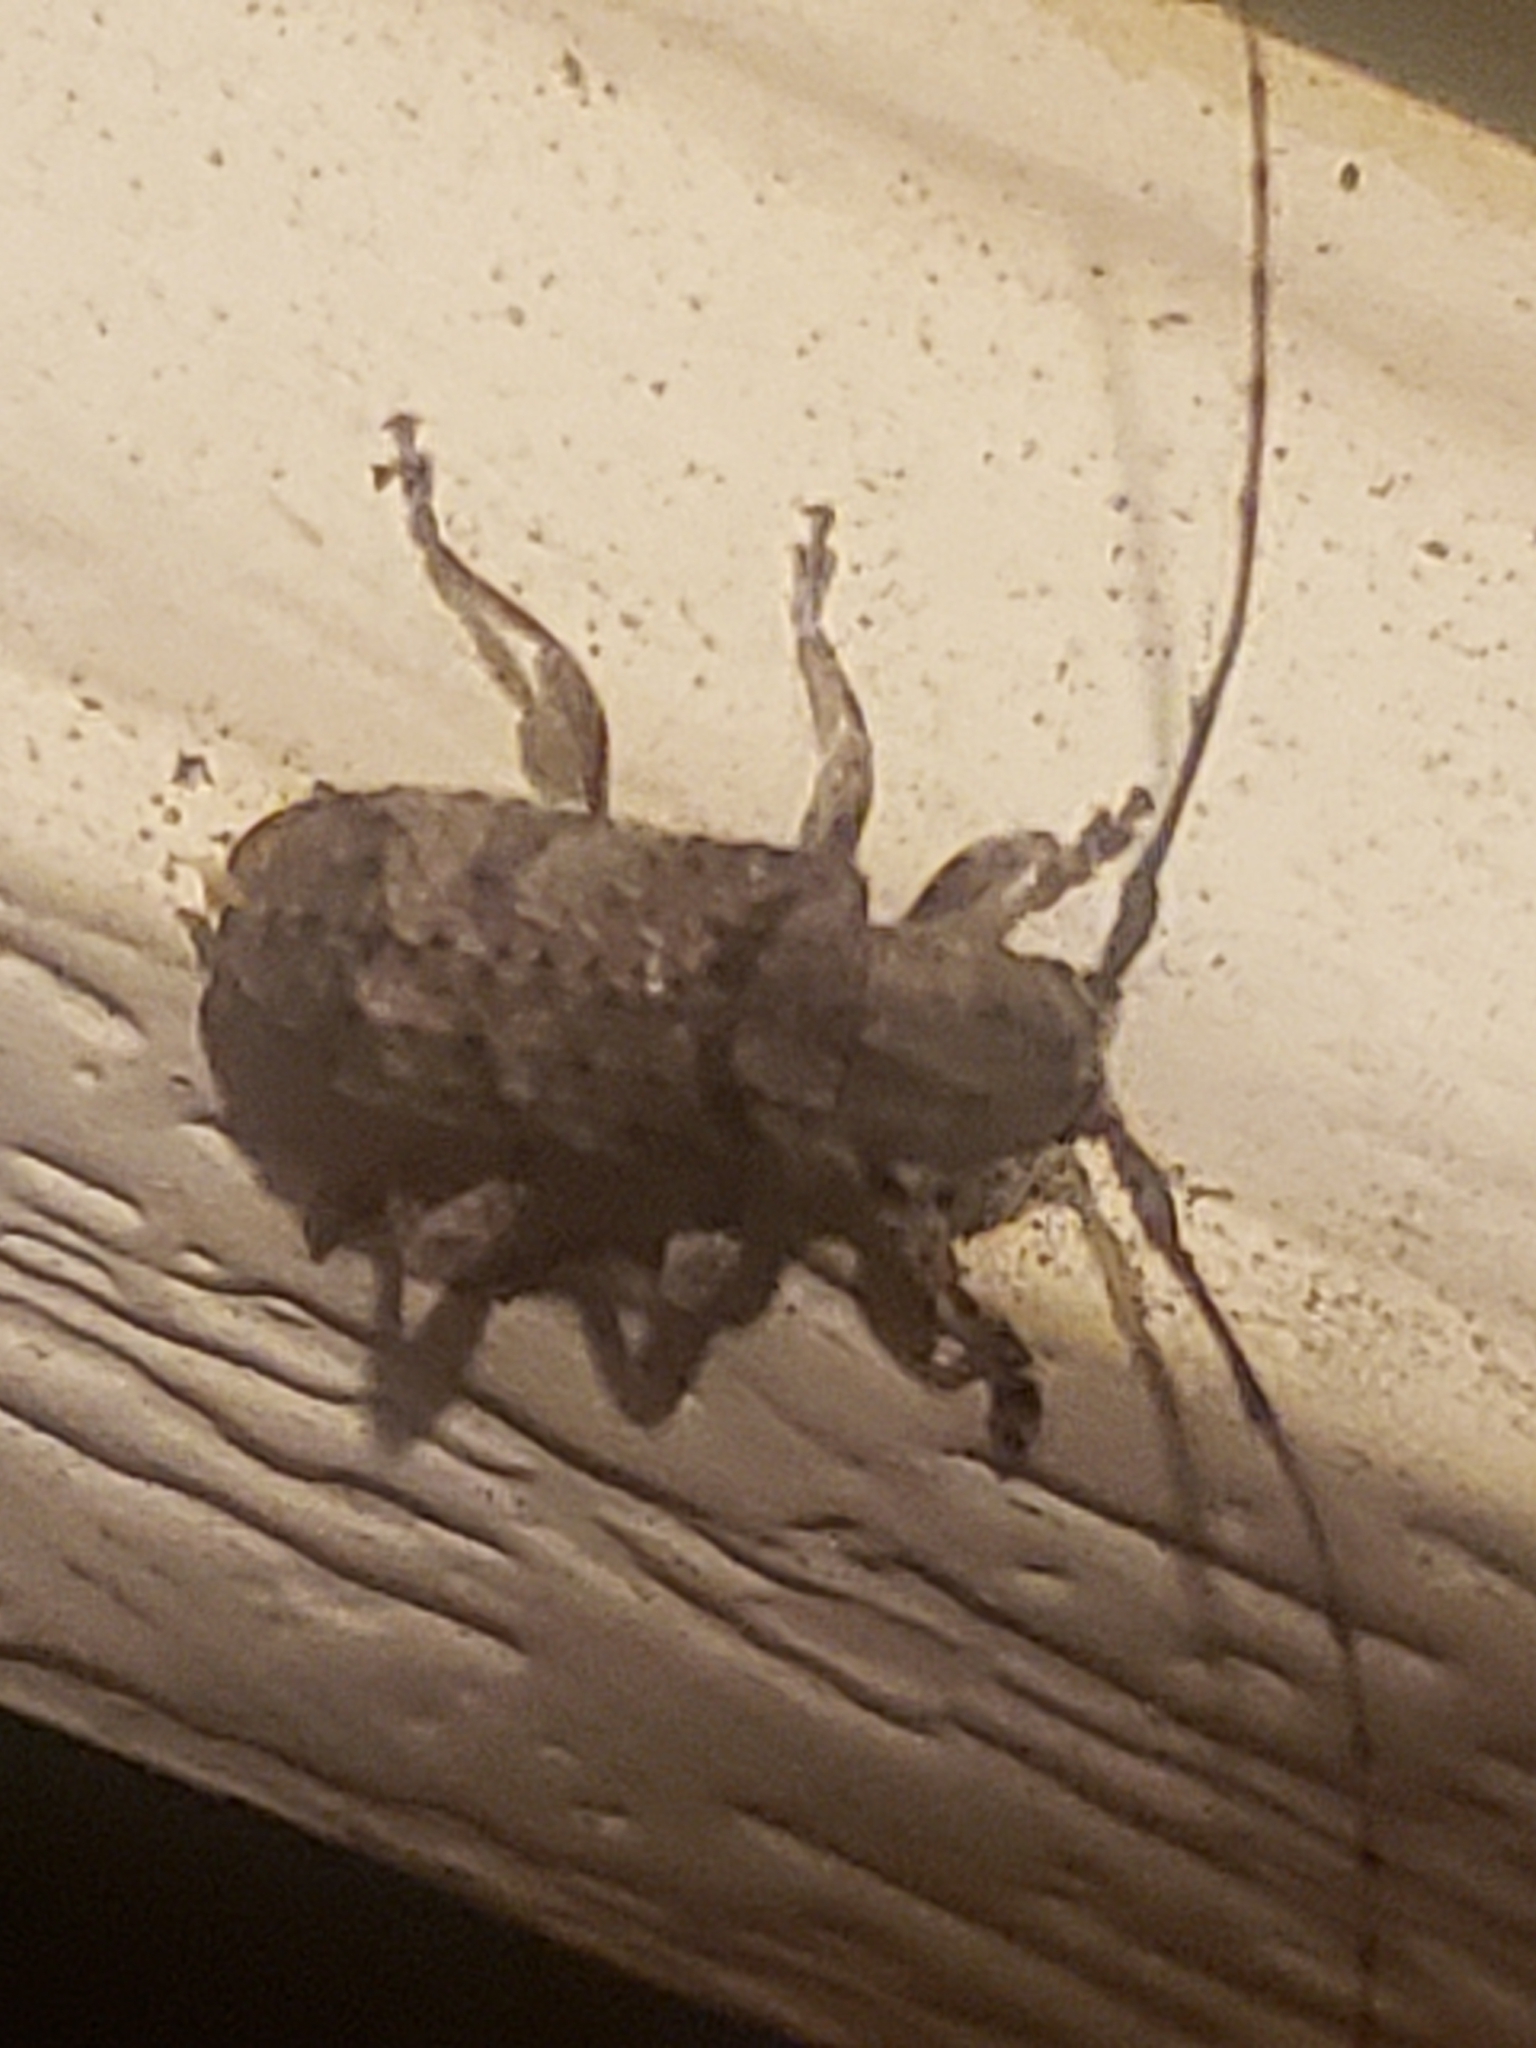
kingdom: Animalia
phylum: Arthropoda
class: Insecta
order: Coleoptera
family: Cerambycidae
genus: Ecyrus
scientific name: Ecyrus dasycerus
